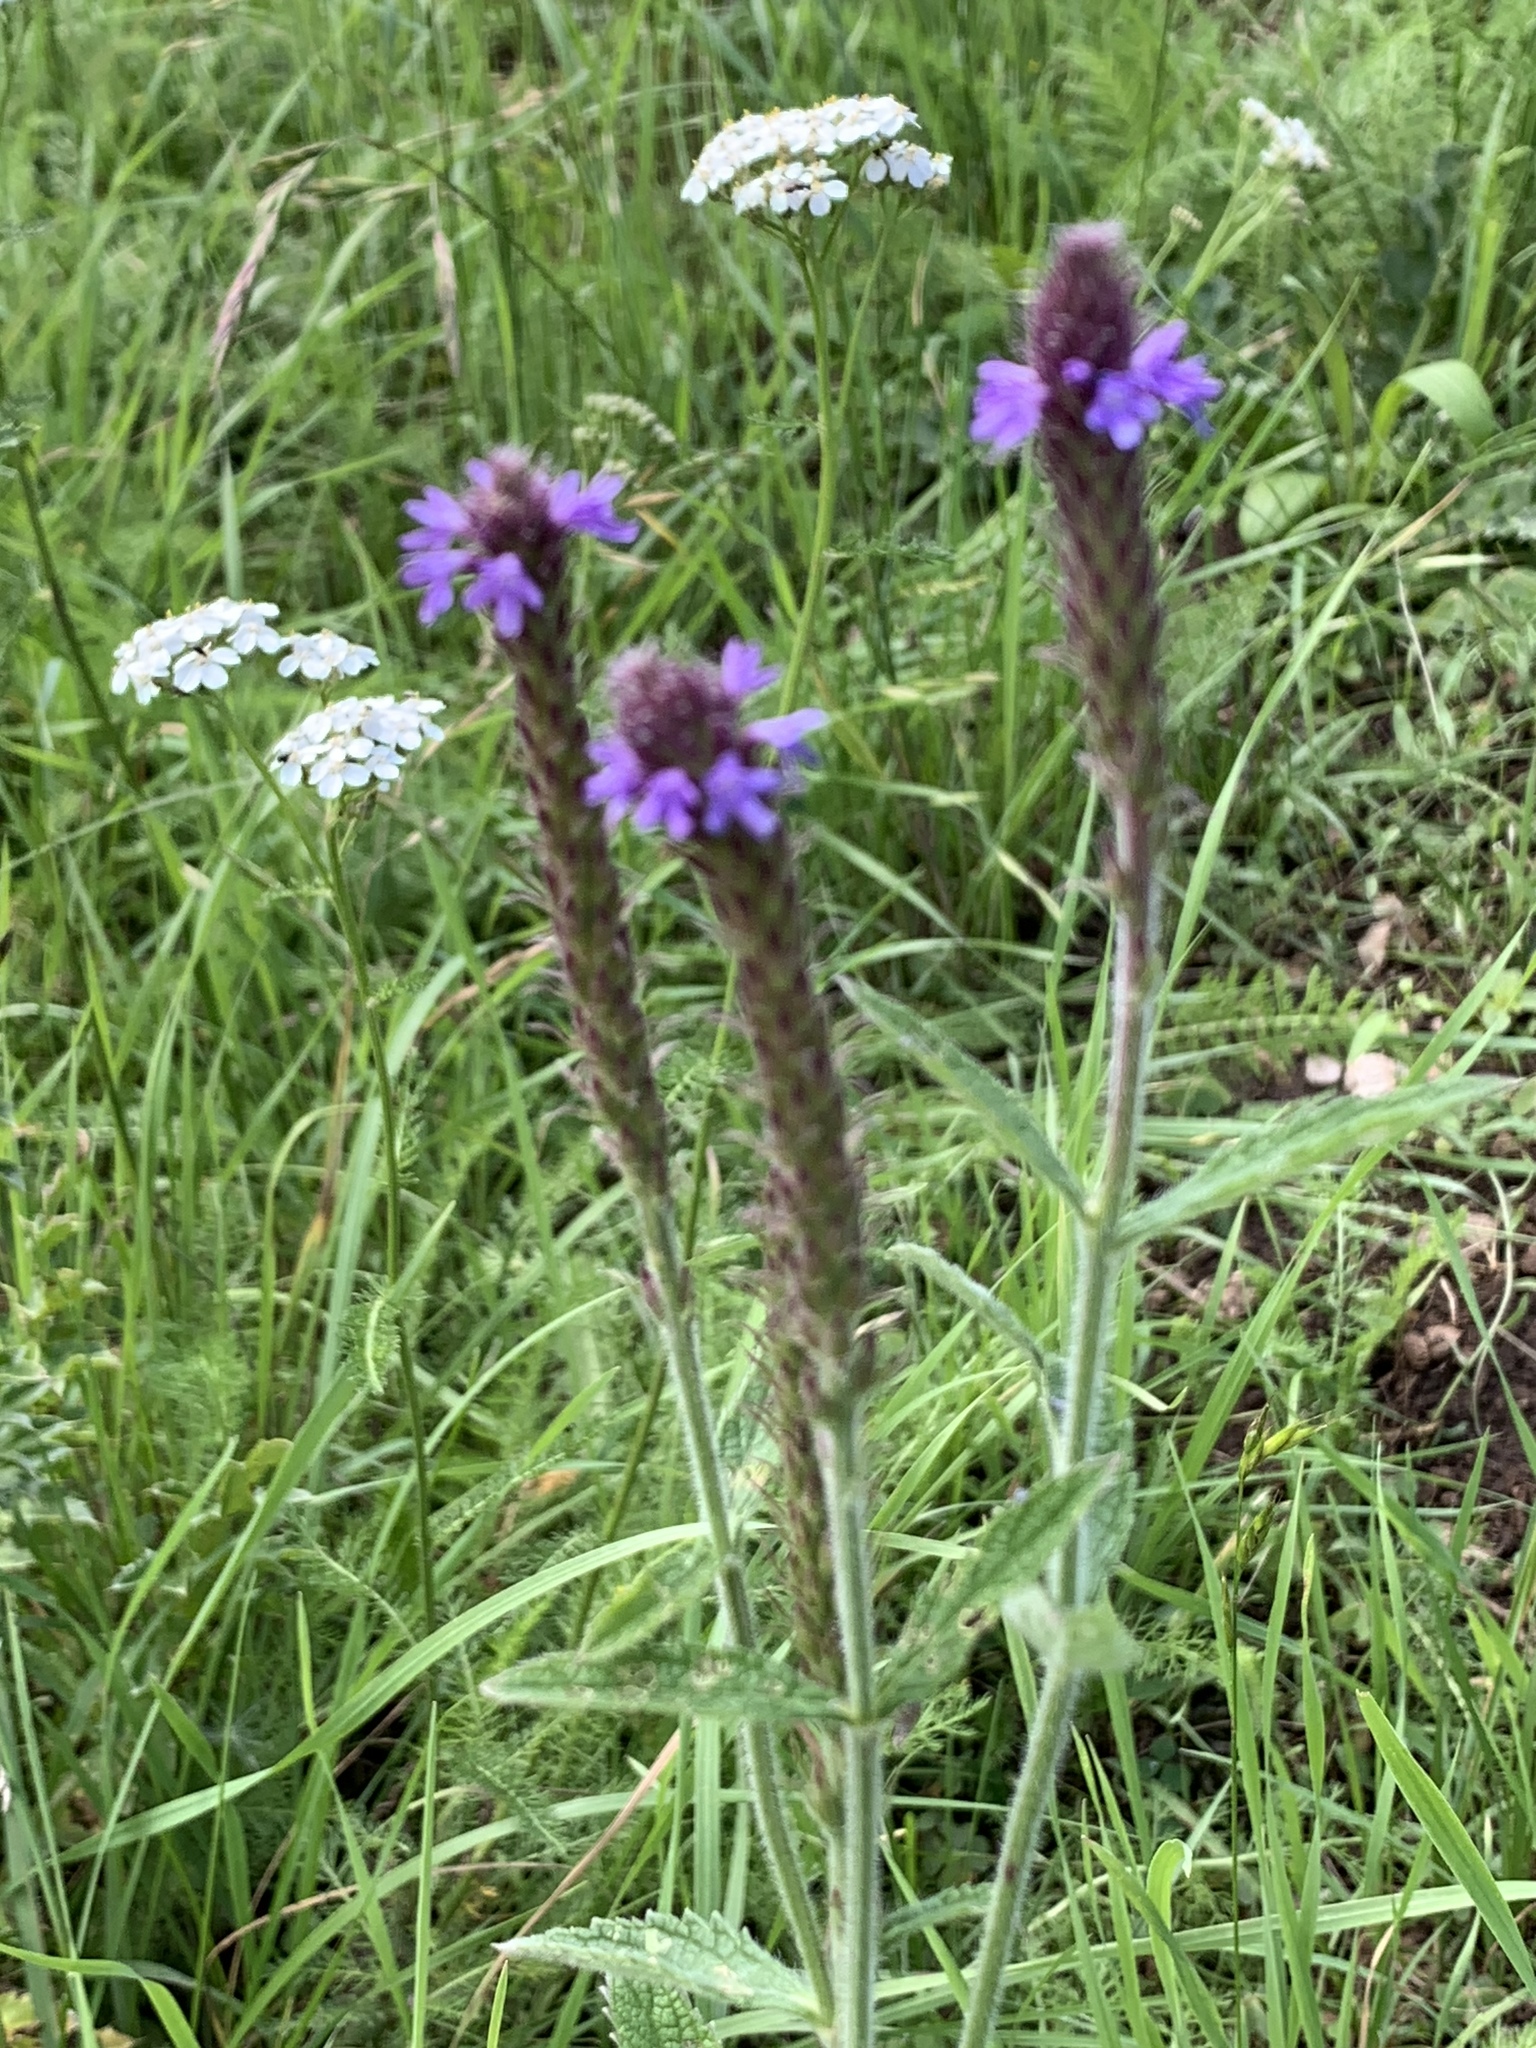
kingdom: Plantae
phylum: Tracheophyta
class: Magnoliopsida
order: Lamiales
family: Verbenaceae
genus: Verbena
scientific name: Verbena macdougalii
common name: New mexico vervain
